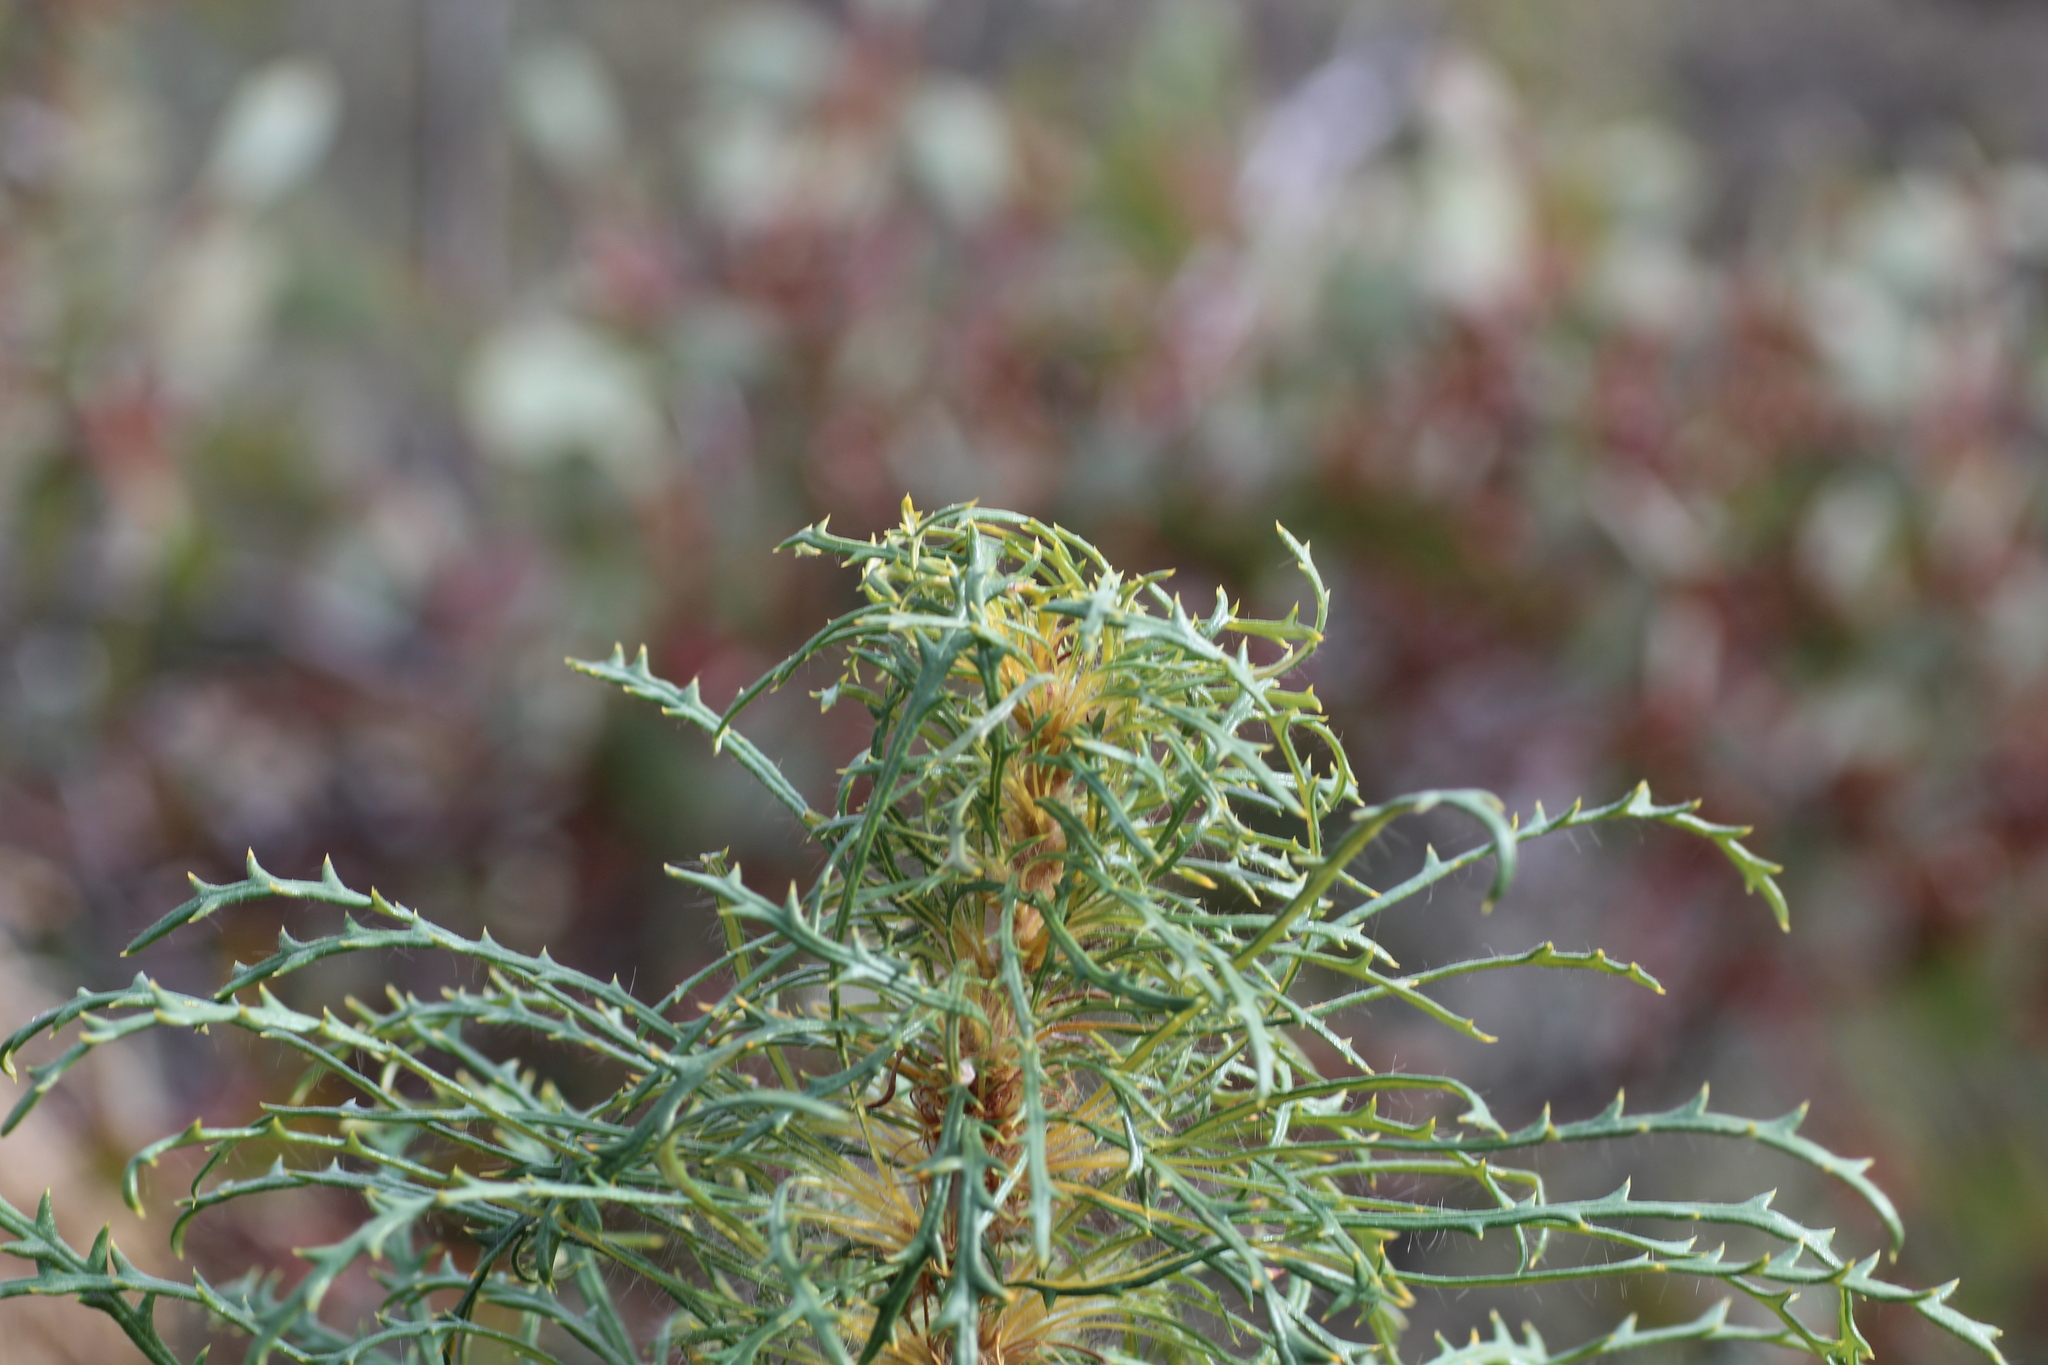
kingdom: Plantae
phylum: Tracheophyta
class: Magnoliopsida
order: Proteales
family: Proteaceae
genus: Banksia
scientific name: Banksia columnaris
